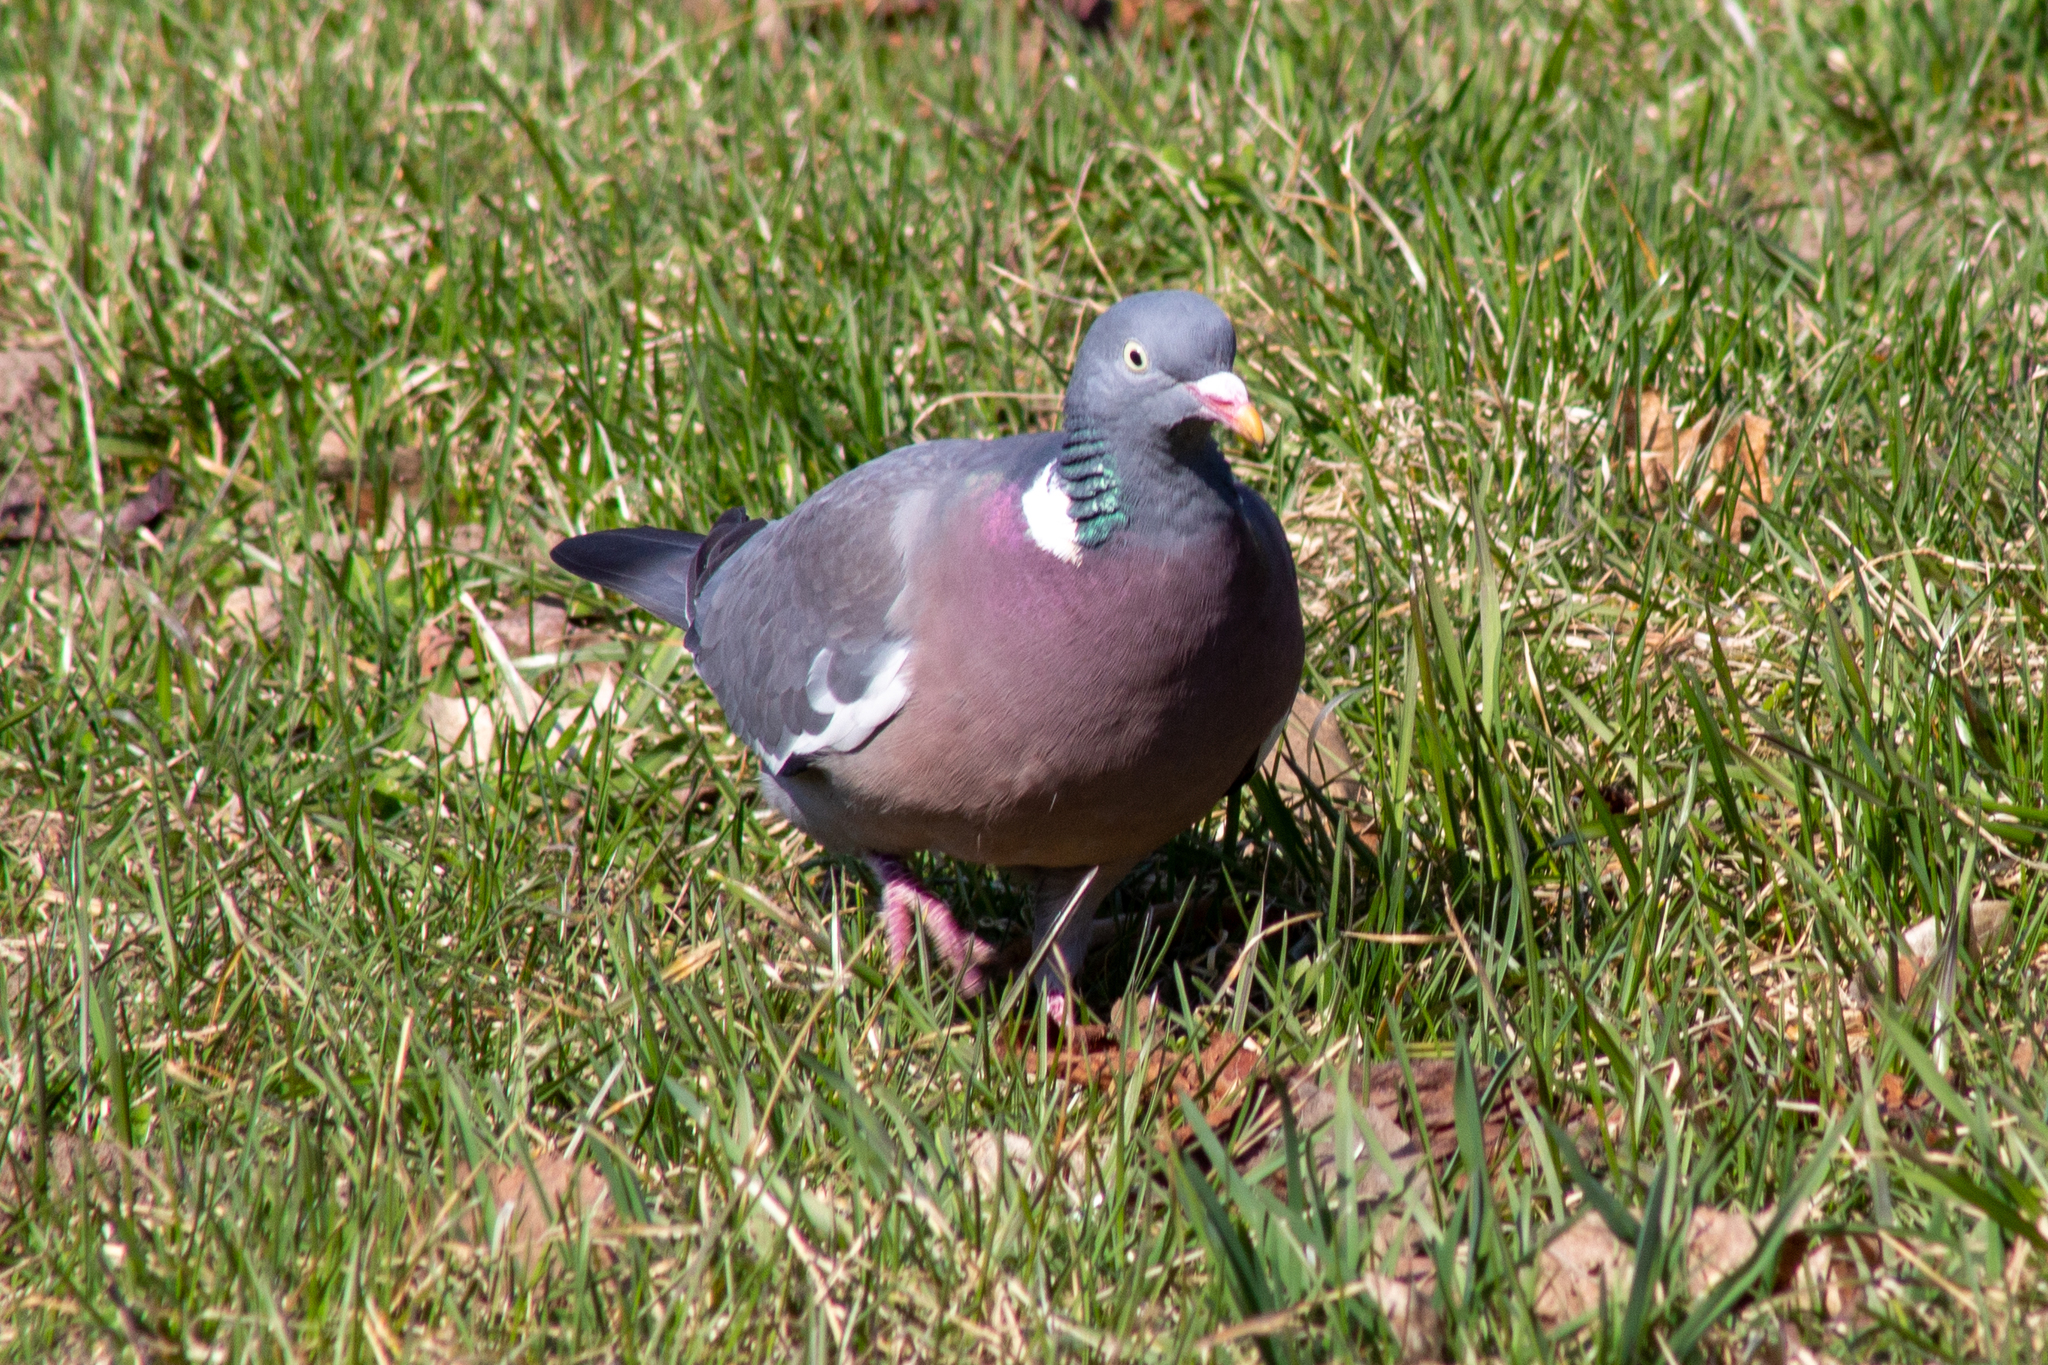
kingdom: Animalia
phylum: Chordata
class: Aves
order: Columbiformes
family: Columbidae
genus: Columba
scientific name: Columba palumbus
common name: Common wood pigeon
